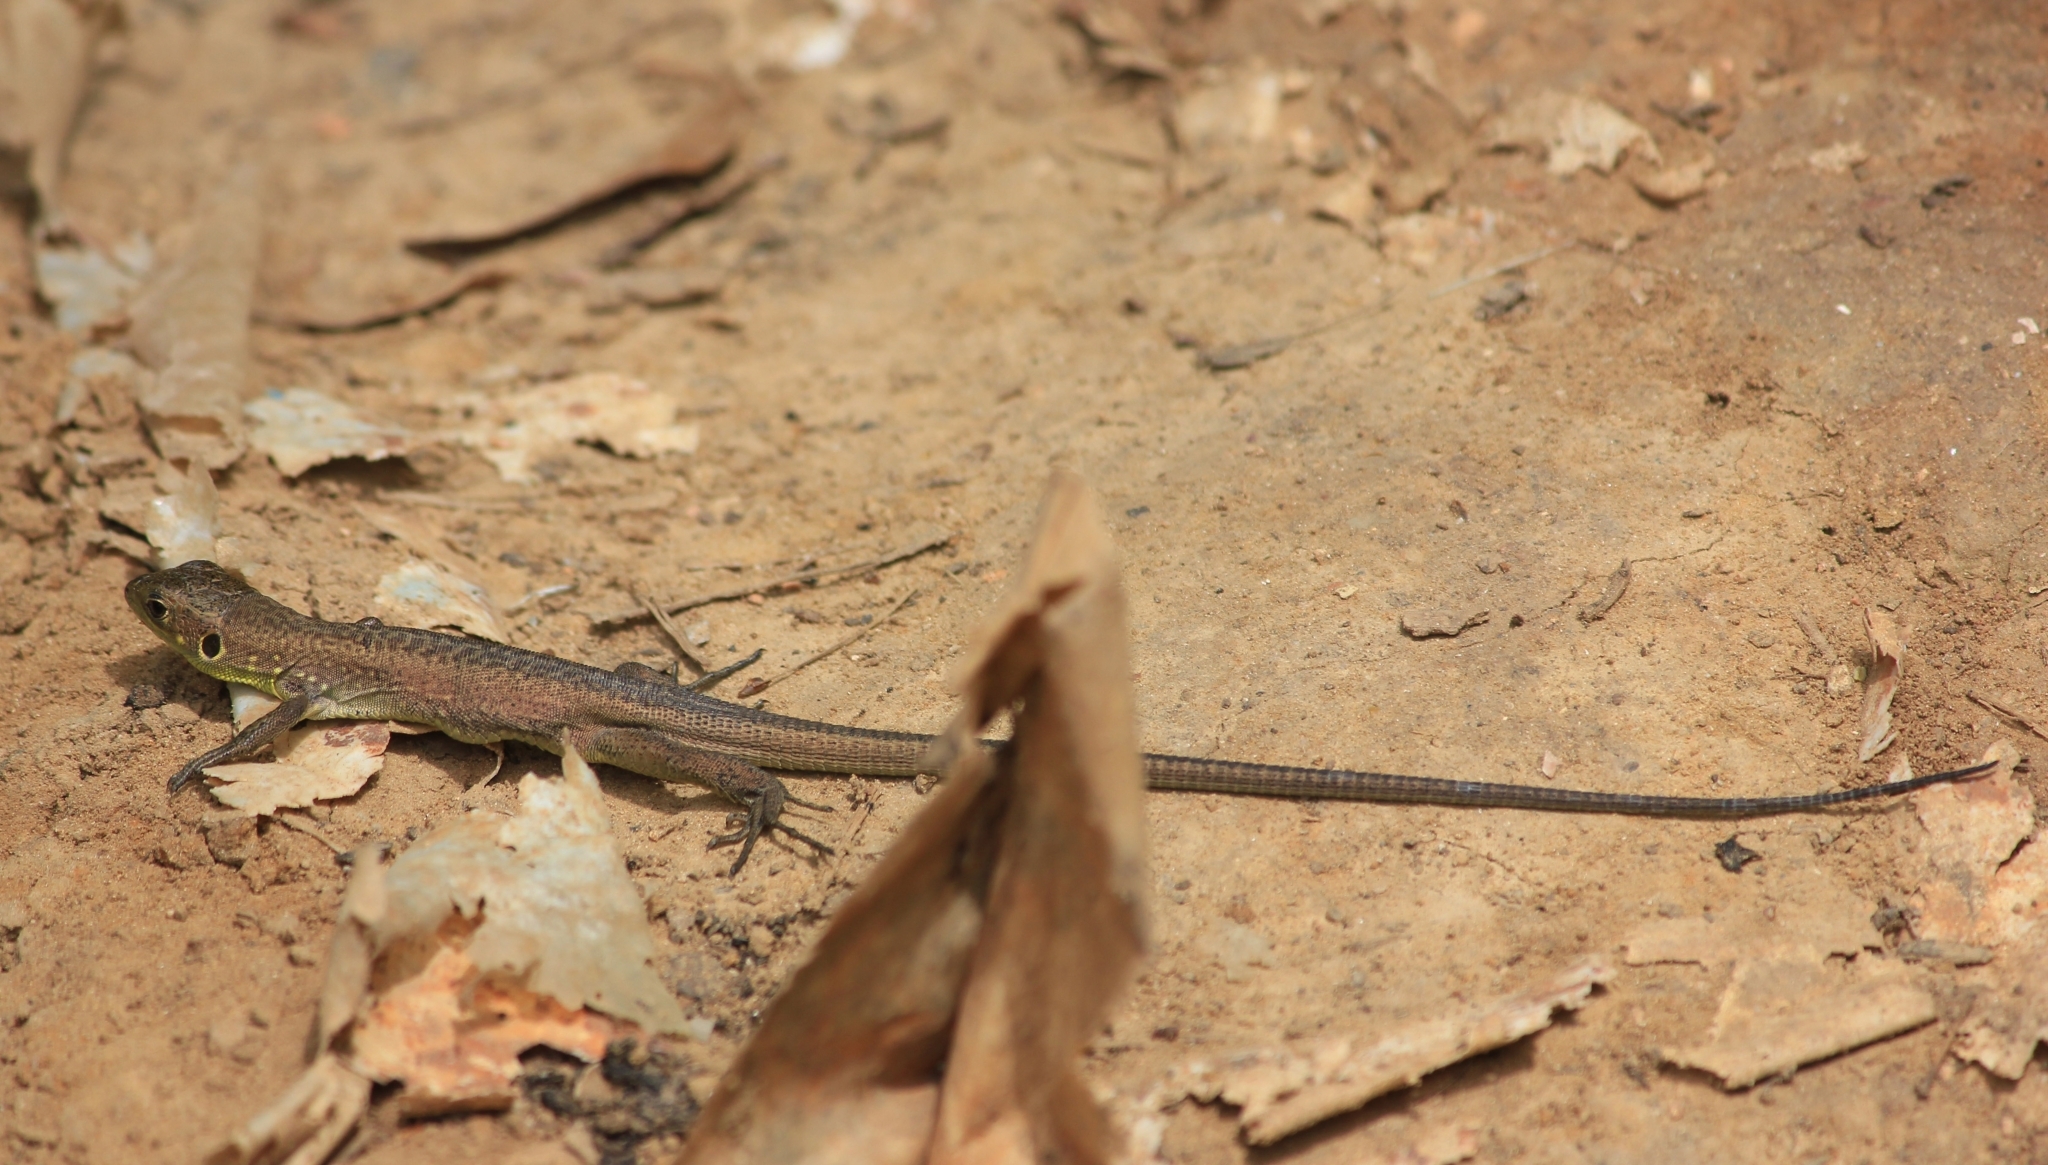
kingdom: Animalia
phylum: Chordata
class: Squamata
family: Lacertidae
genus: Lacerta
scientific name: Lacerta trilineata
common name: Balkan green lizard
